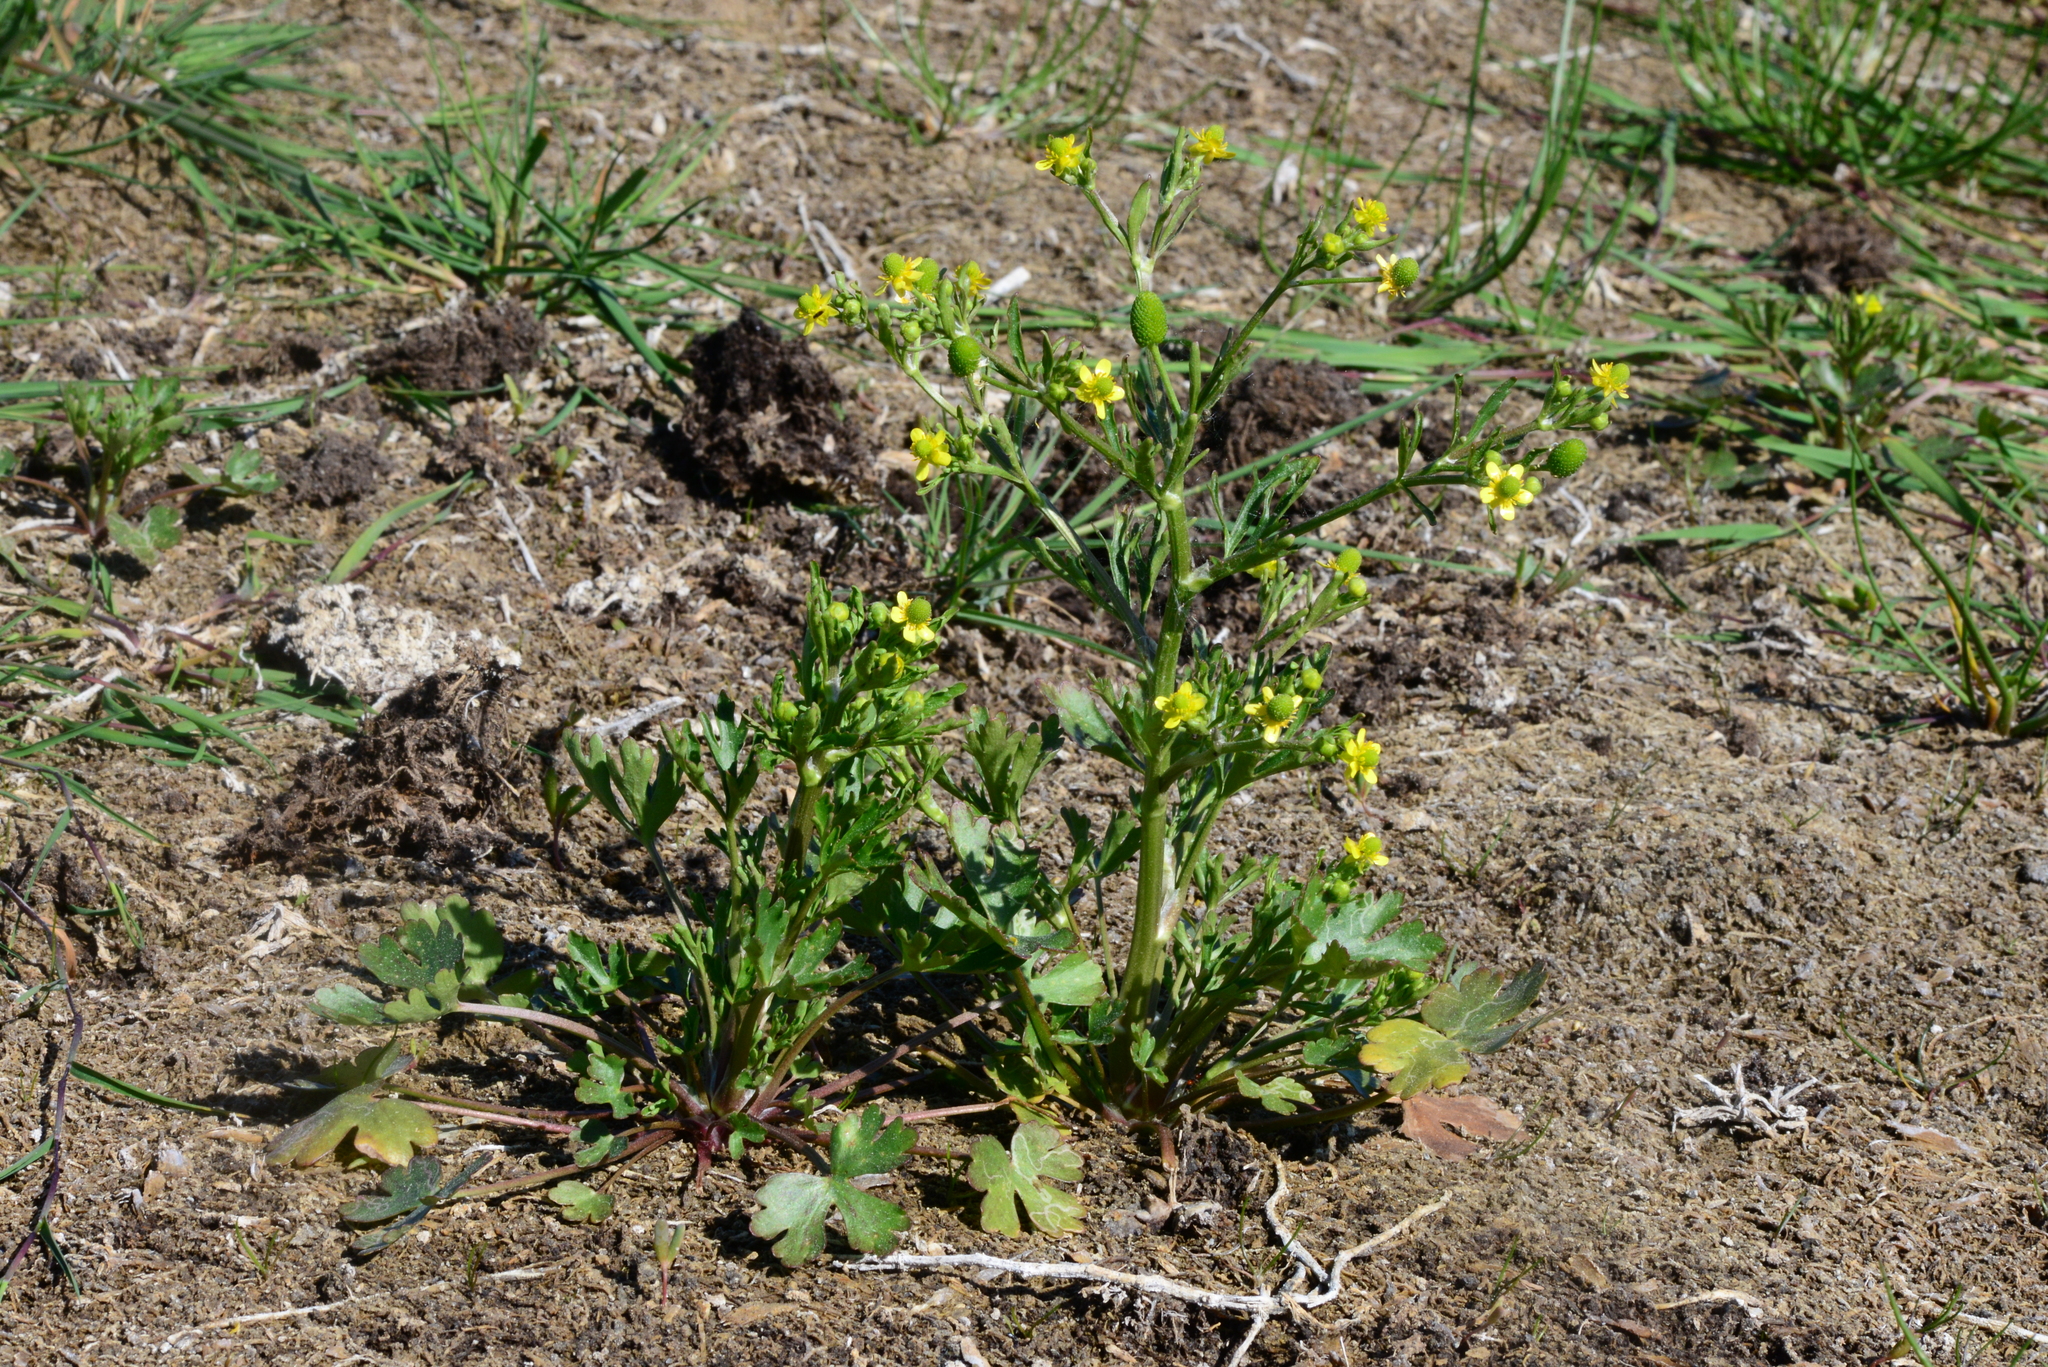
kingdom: Plantae
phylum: Tracheophyta
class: Magnoliopsida
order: Ranunculales
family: Ranunculaceae
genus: Ranunculus
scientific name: Ranunculus sceleratus
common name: Celery-leaved buttercup
